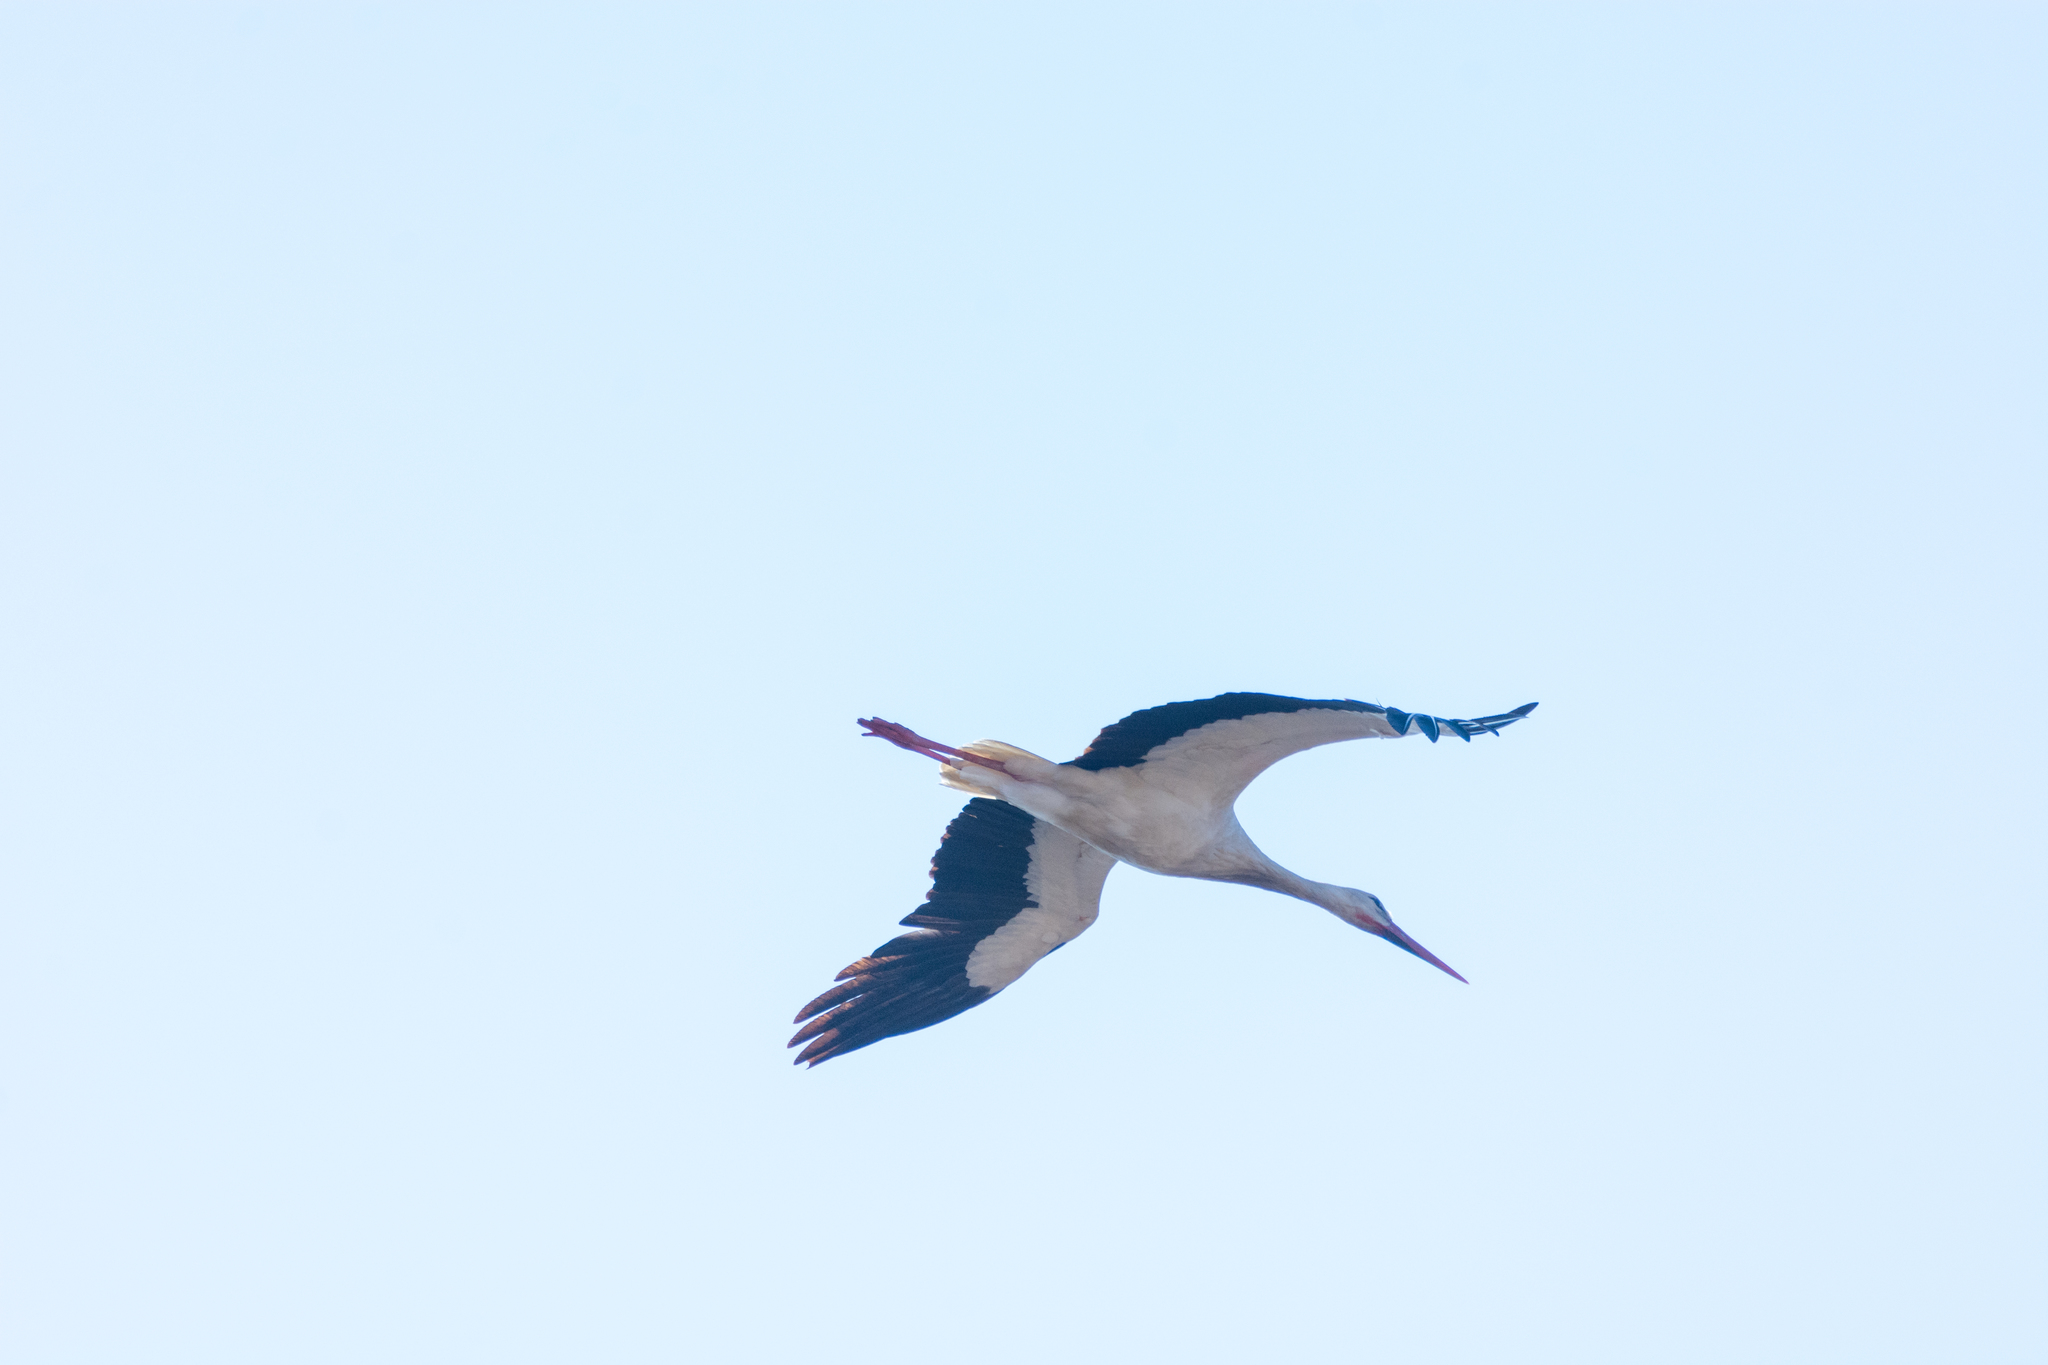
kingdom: Animalia
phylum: Chordata
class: Aves
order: Ciconiiformes
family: Ciconiidae
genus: Ciconia
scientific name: Ciconia ciconia
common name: White stork
